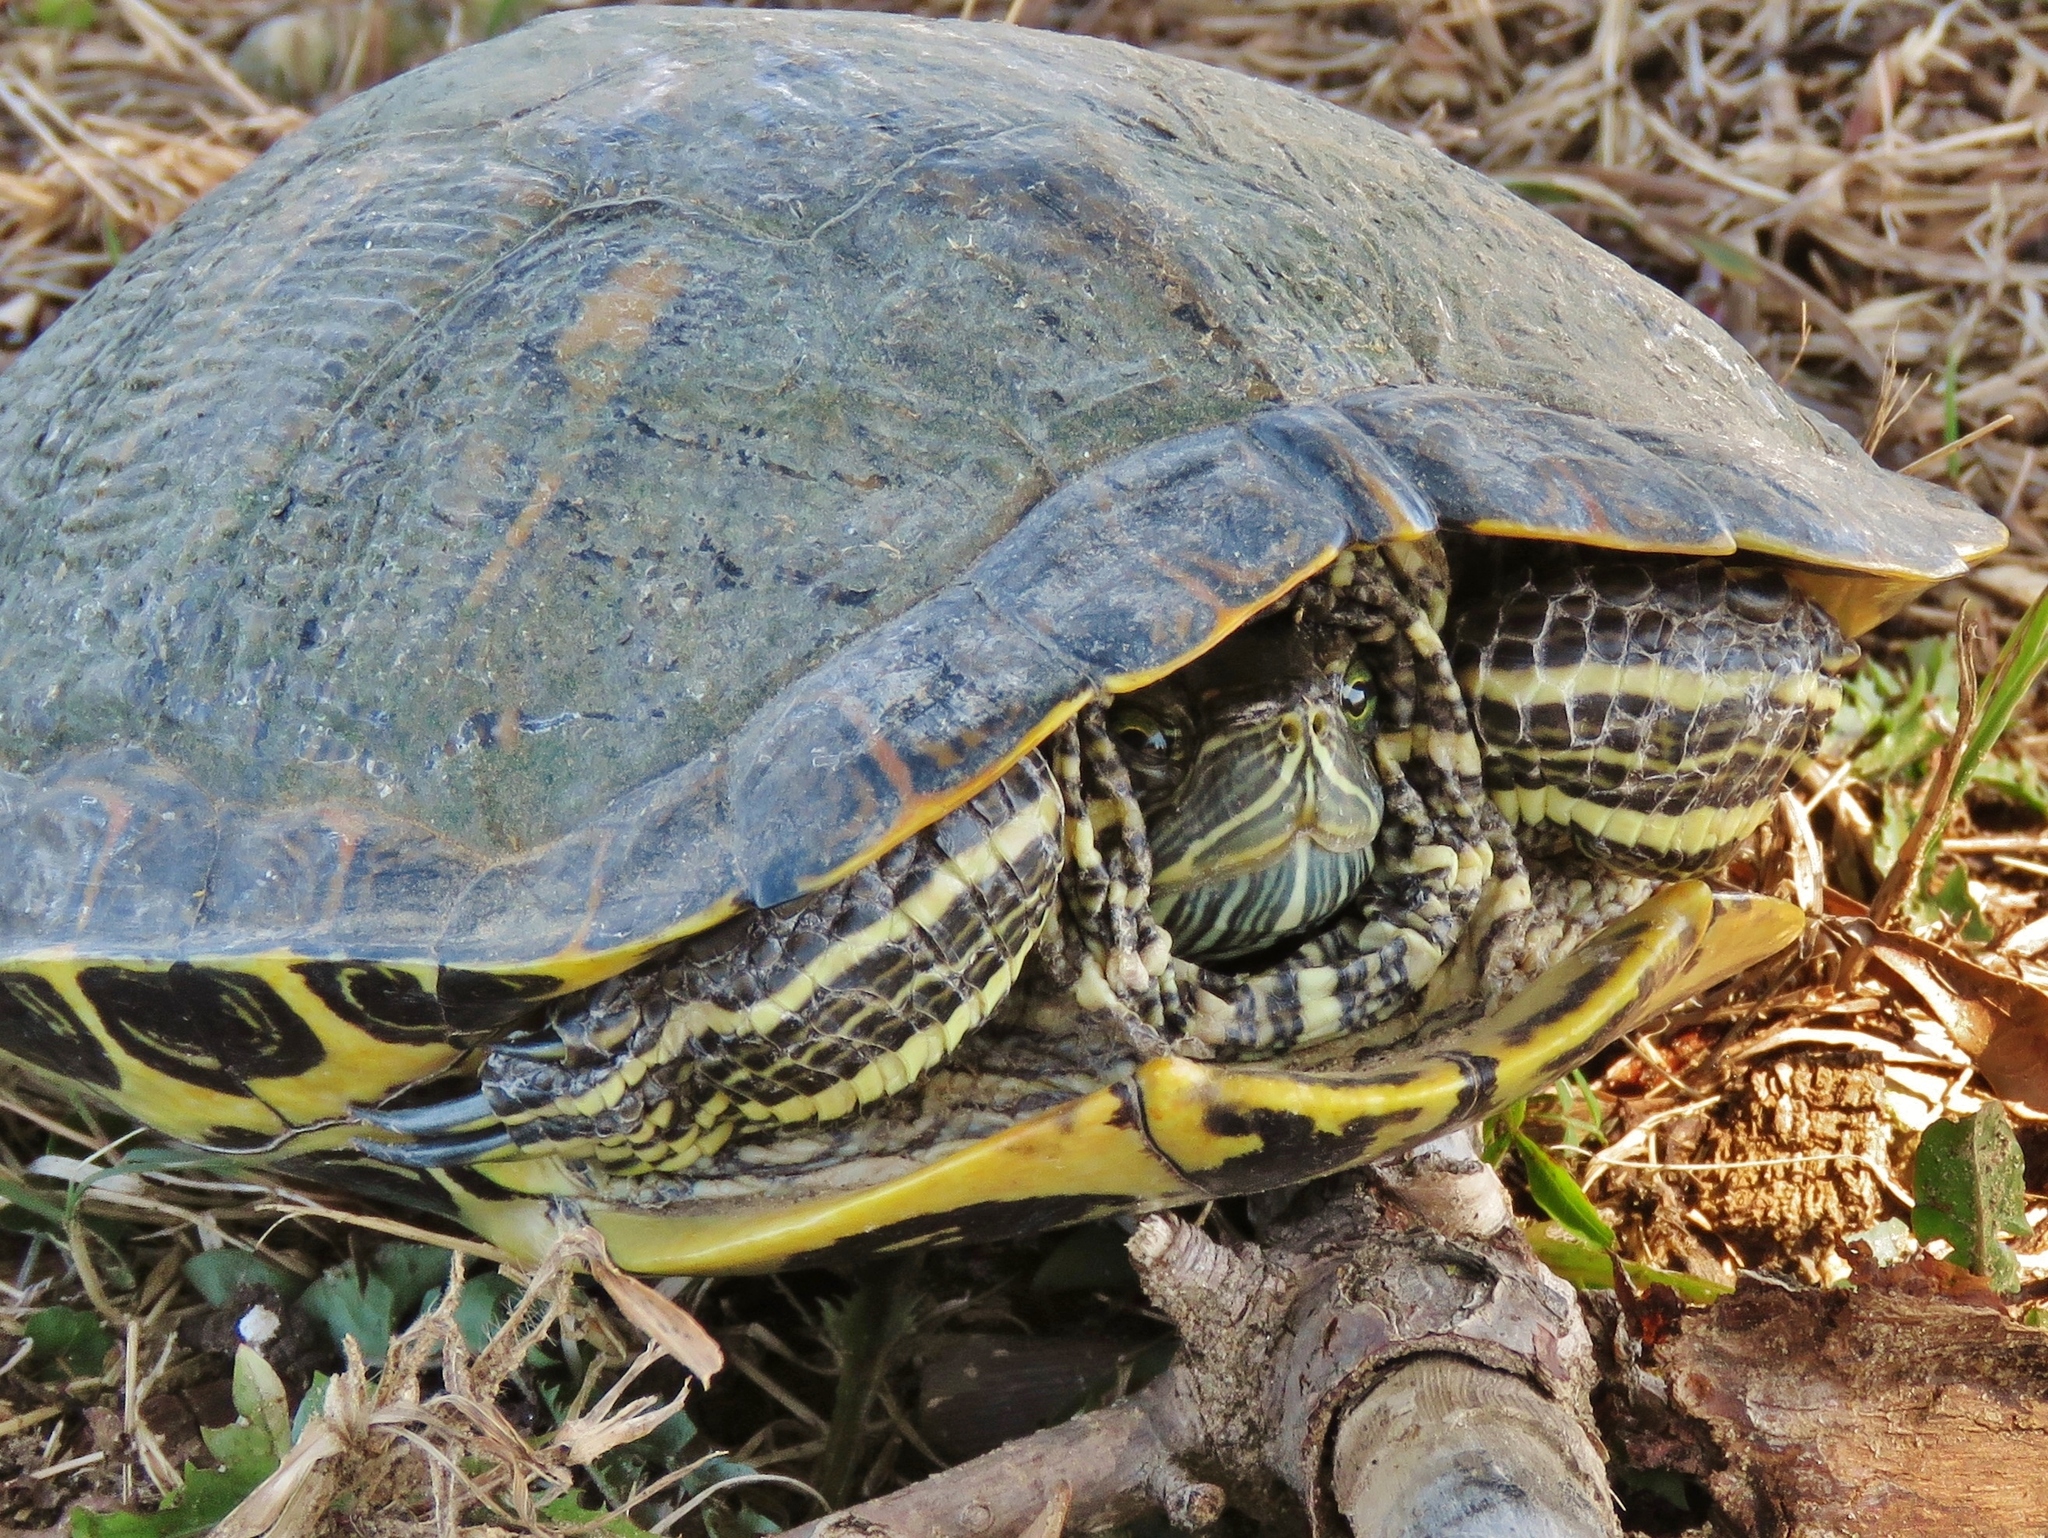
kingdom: Animalia
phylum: Chordata
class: Testudines
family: Emydidae
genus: Trachemys
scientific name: Trachemys scripta
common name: Slider
